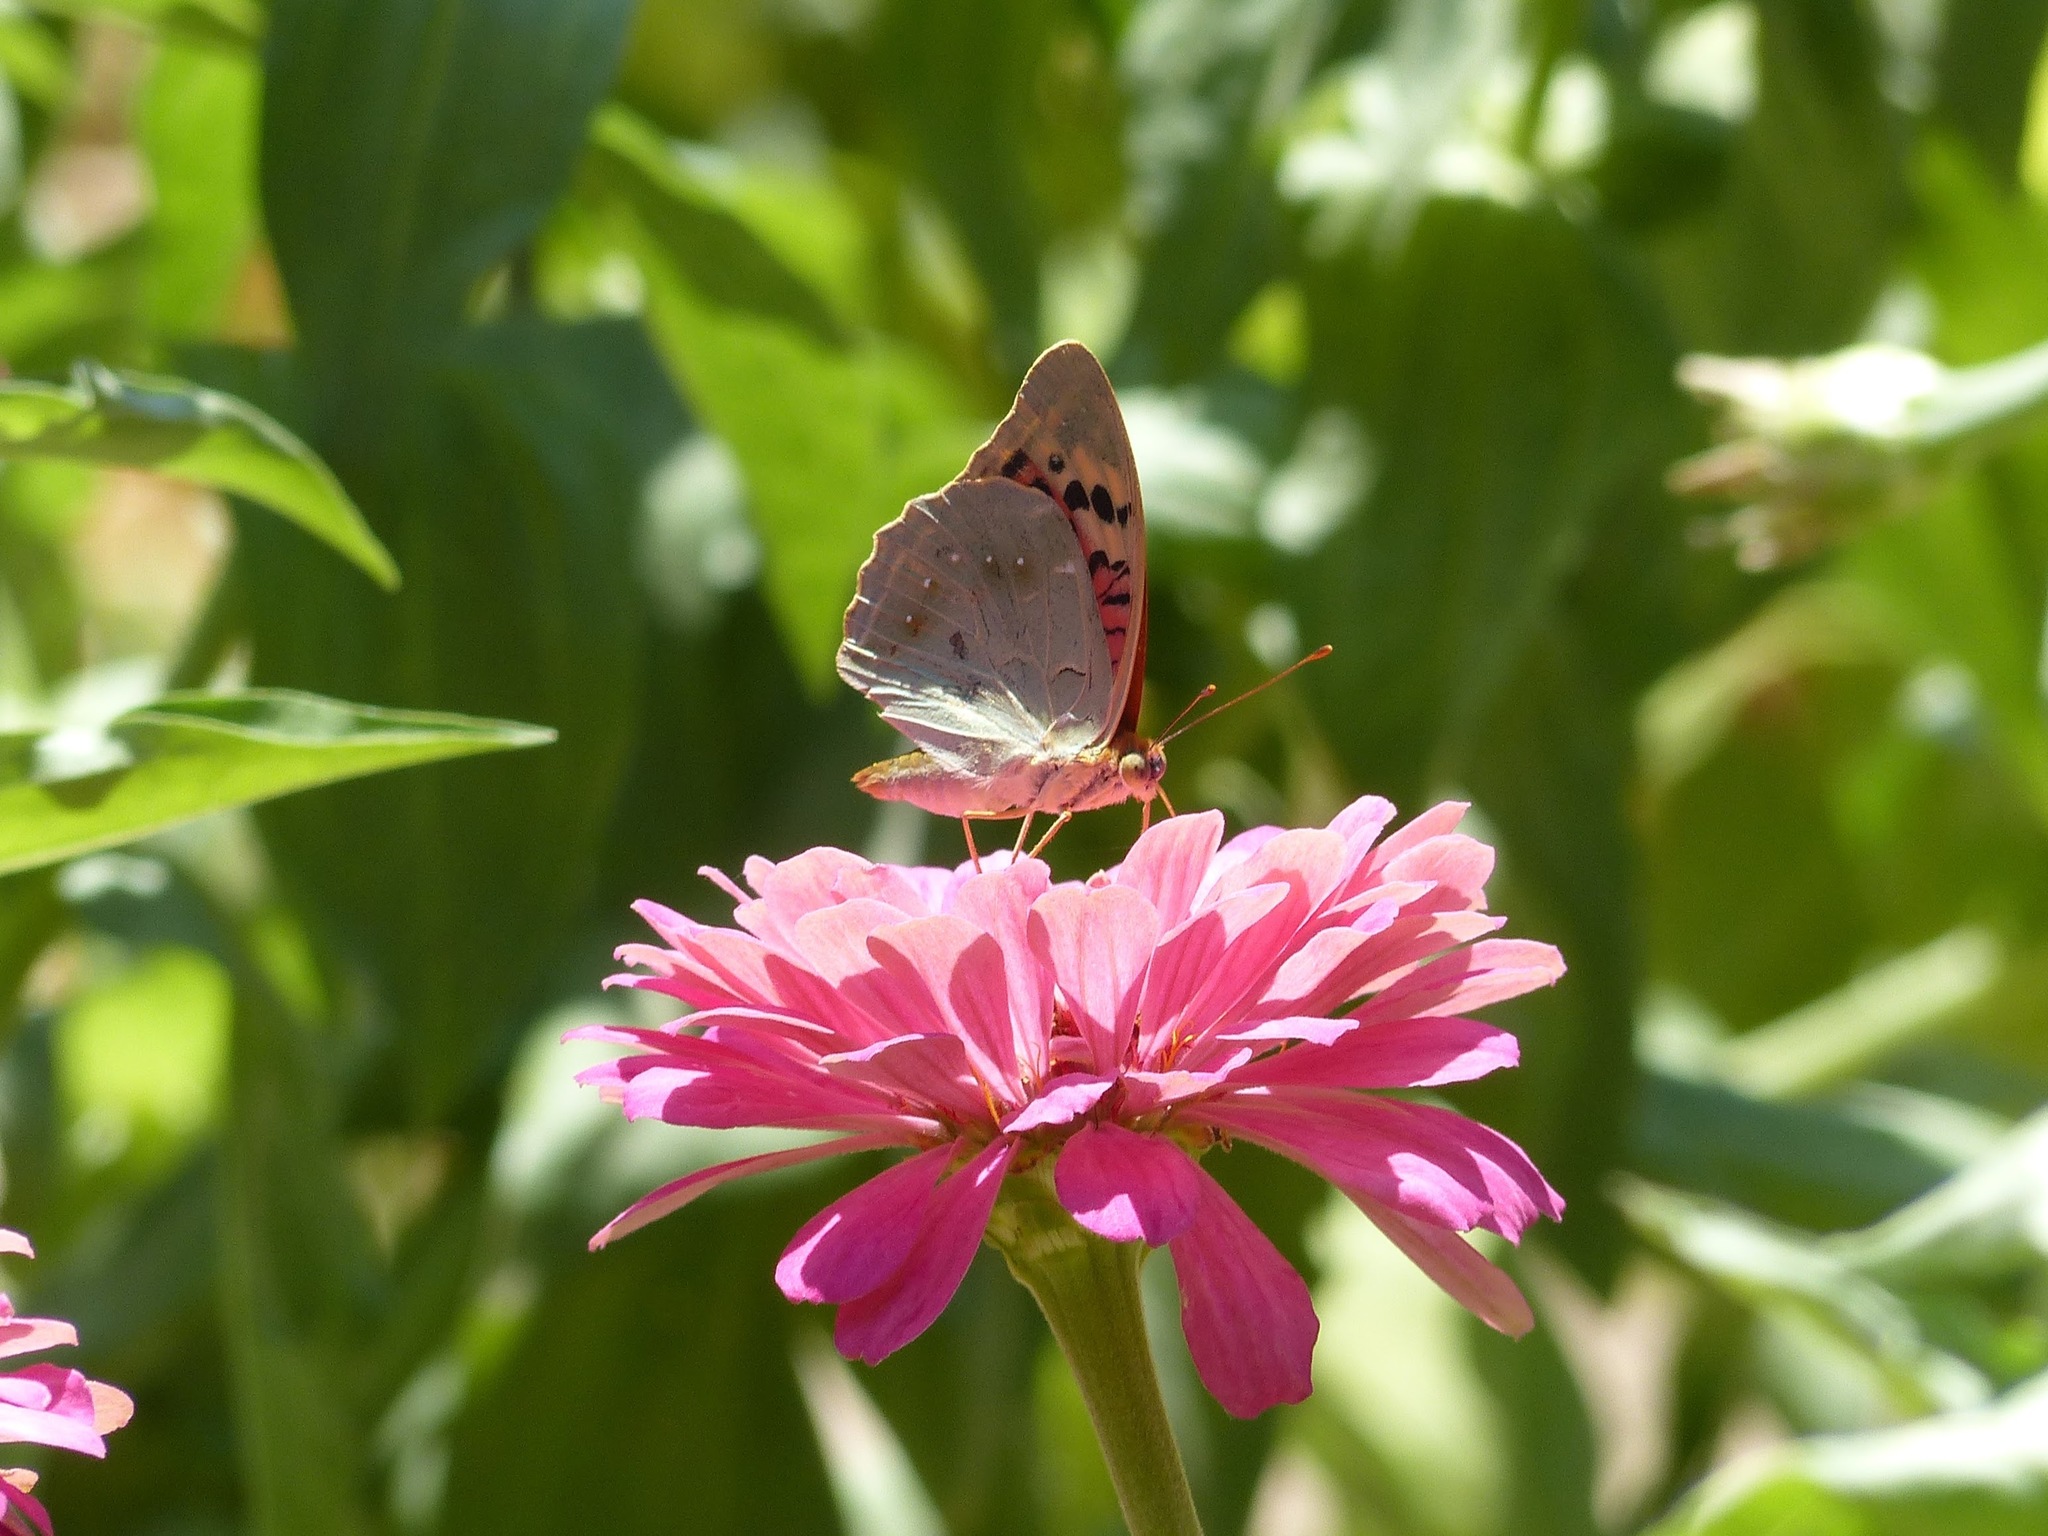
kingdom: Animalia
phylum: Arthropoda
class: Insecta
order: Lepidoptera
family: Nymphalidae
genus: Damora
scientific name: Damora pandora
